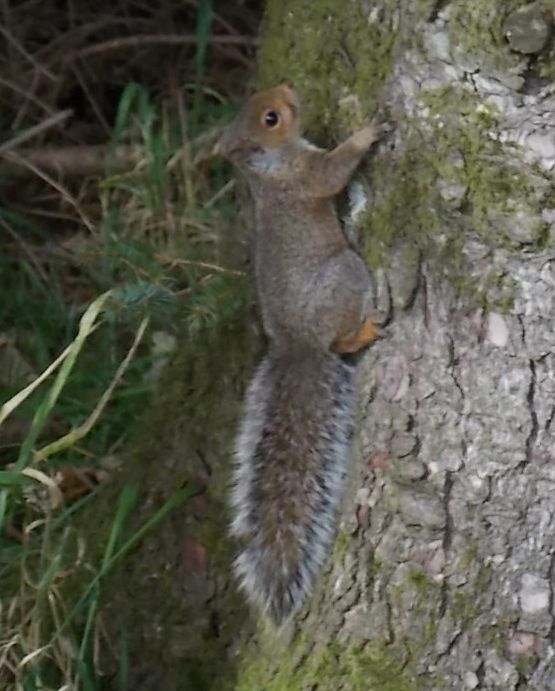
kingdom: Animalia
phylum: Chordata
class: Mammalia
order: Rodentia
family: Sciuridae
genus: Sciurus
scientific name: Sciurus carolinensis
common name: Eastern gray squirrel
